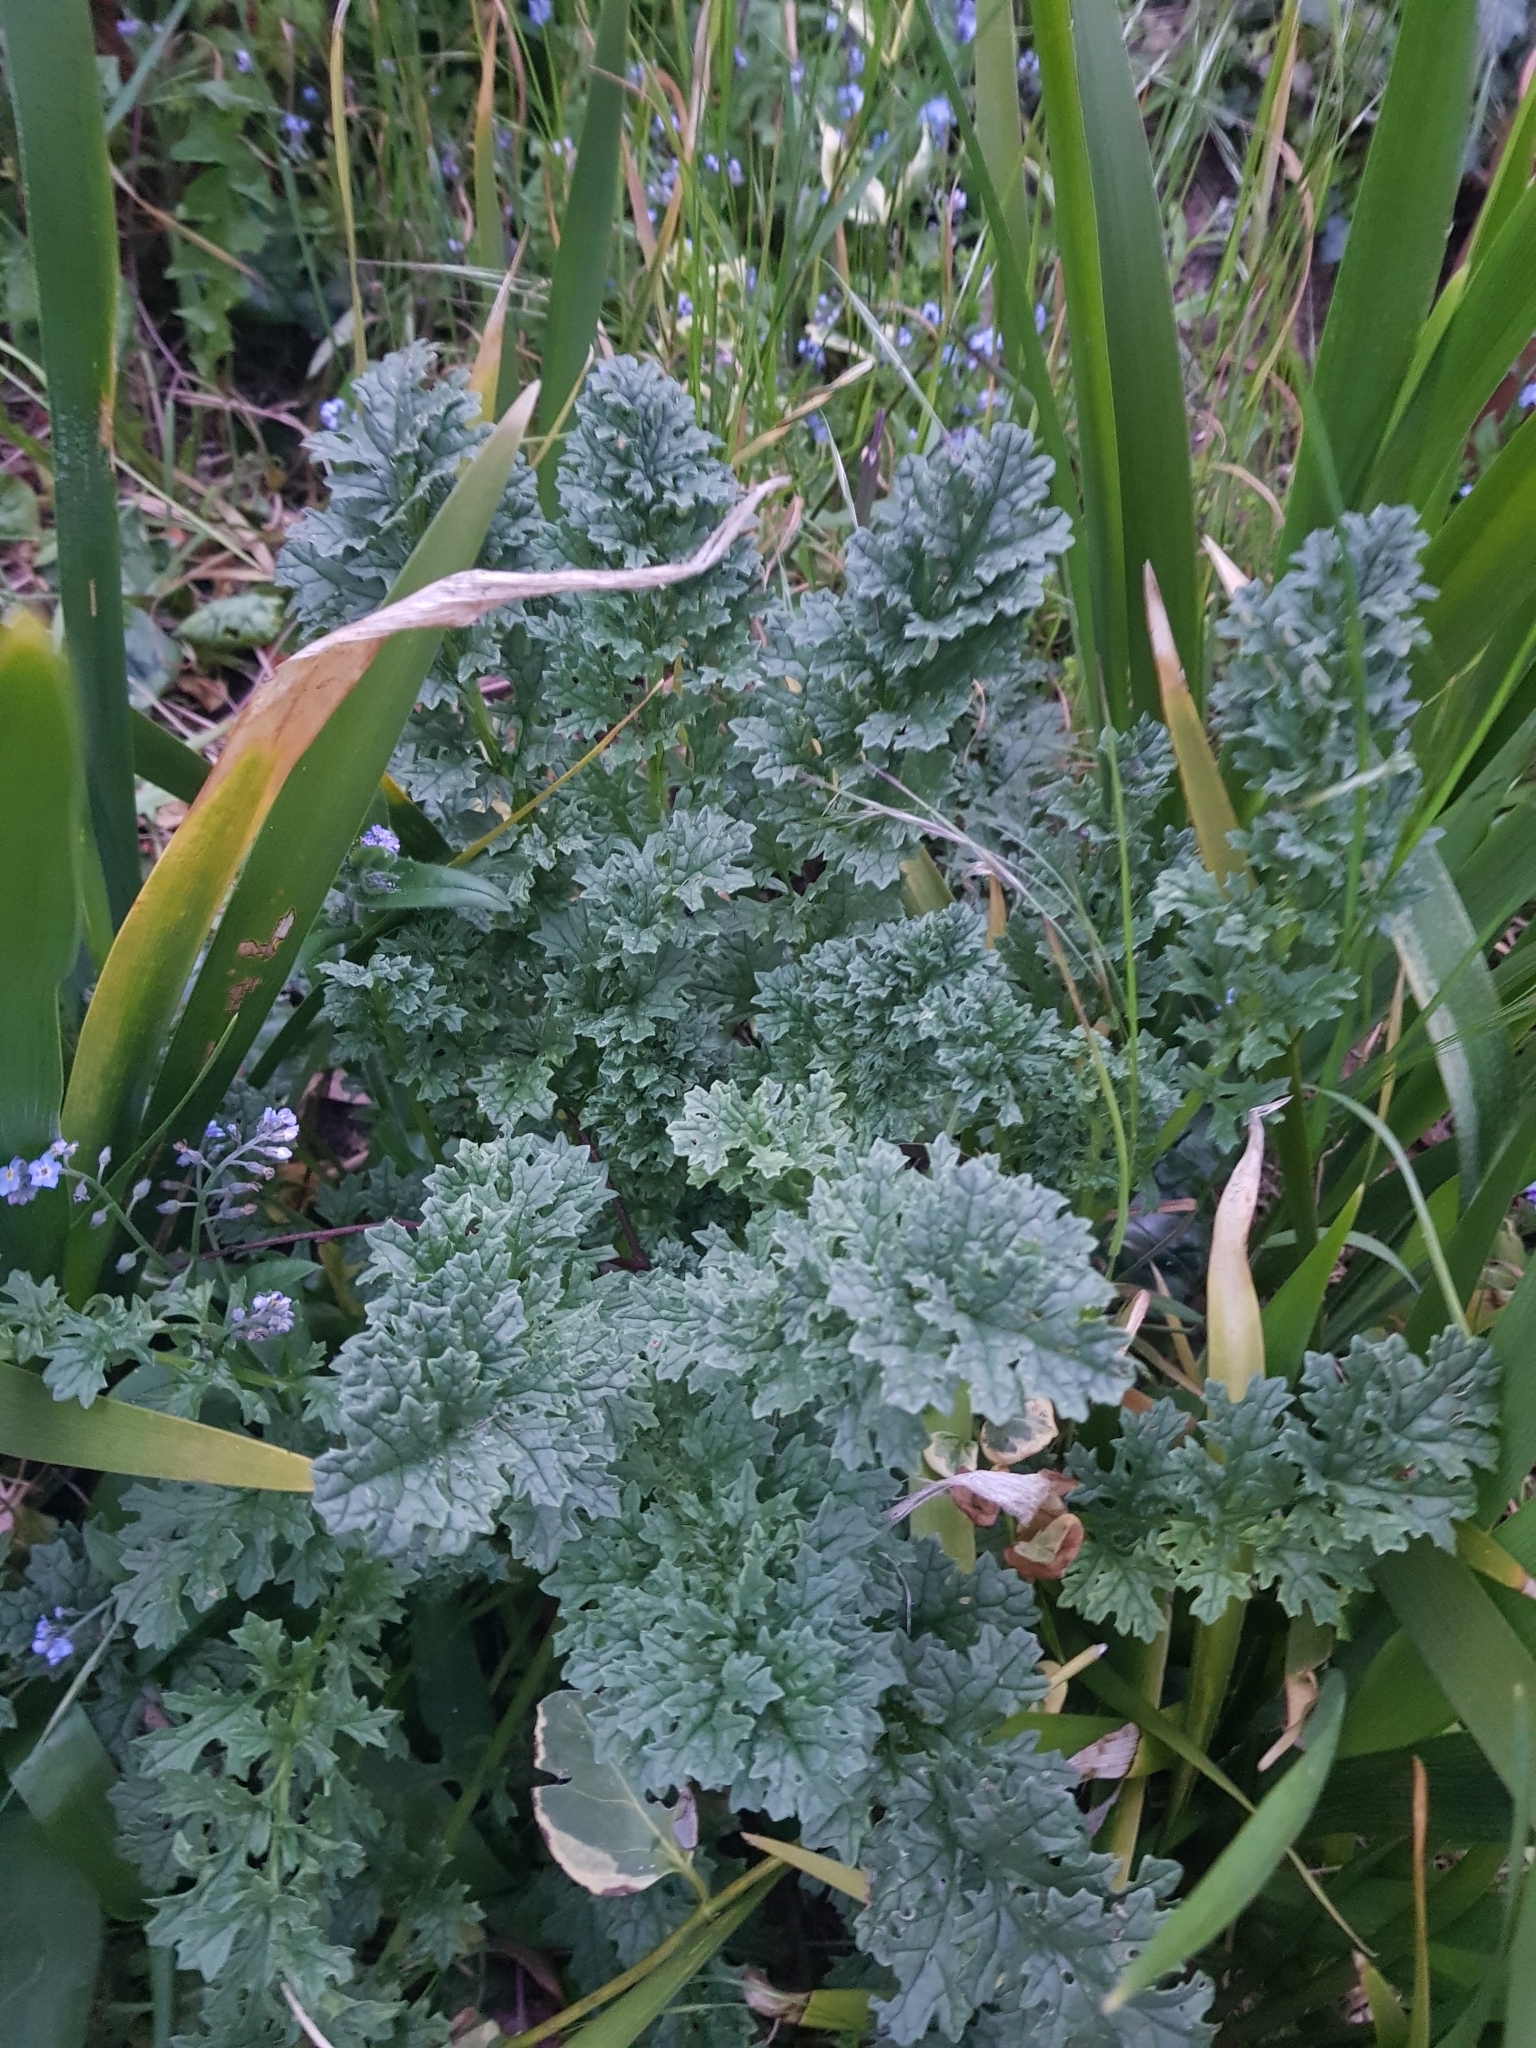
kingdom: Plantae
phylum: Tracheophyta
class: Magnoliopsida
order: Asterales
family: Asteraceae
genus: Jacobaea
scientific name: Jacobaea vulgaris
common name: Stinking willie
